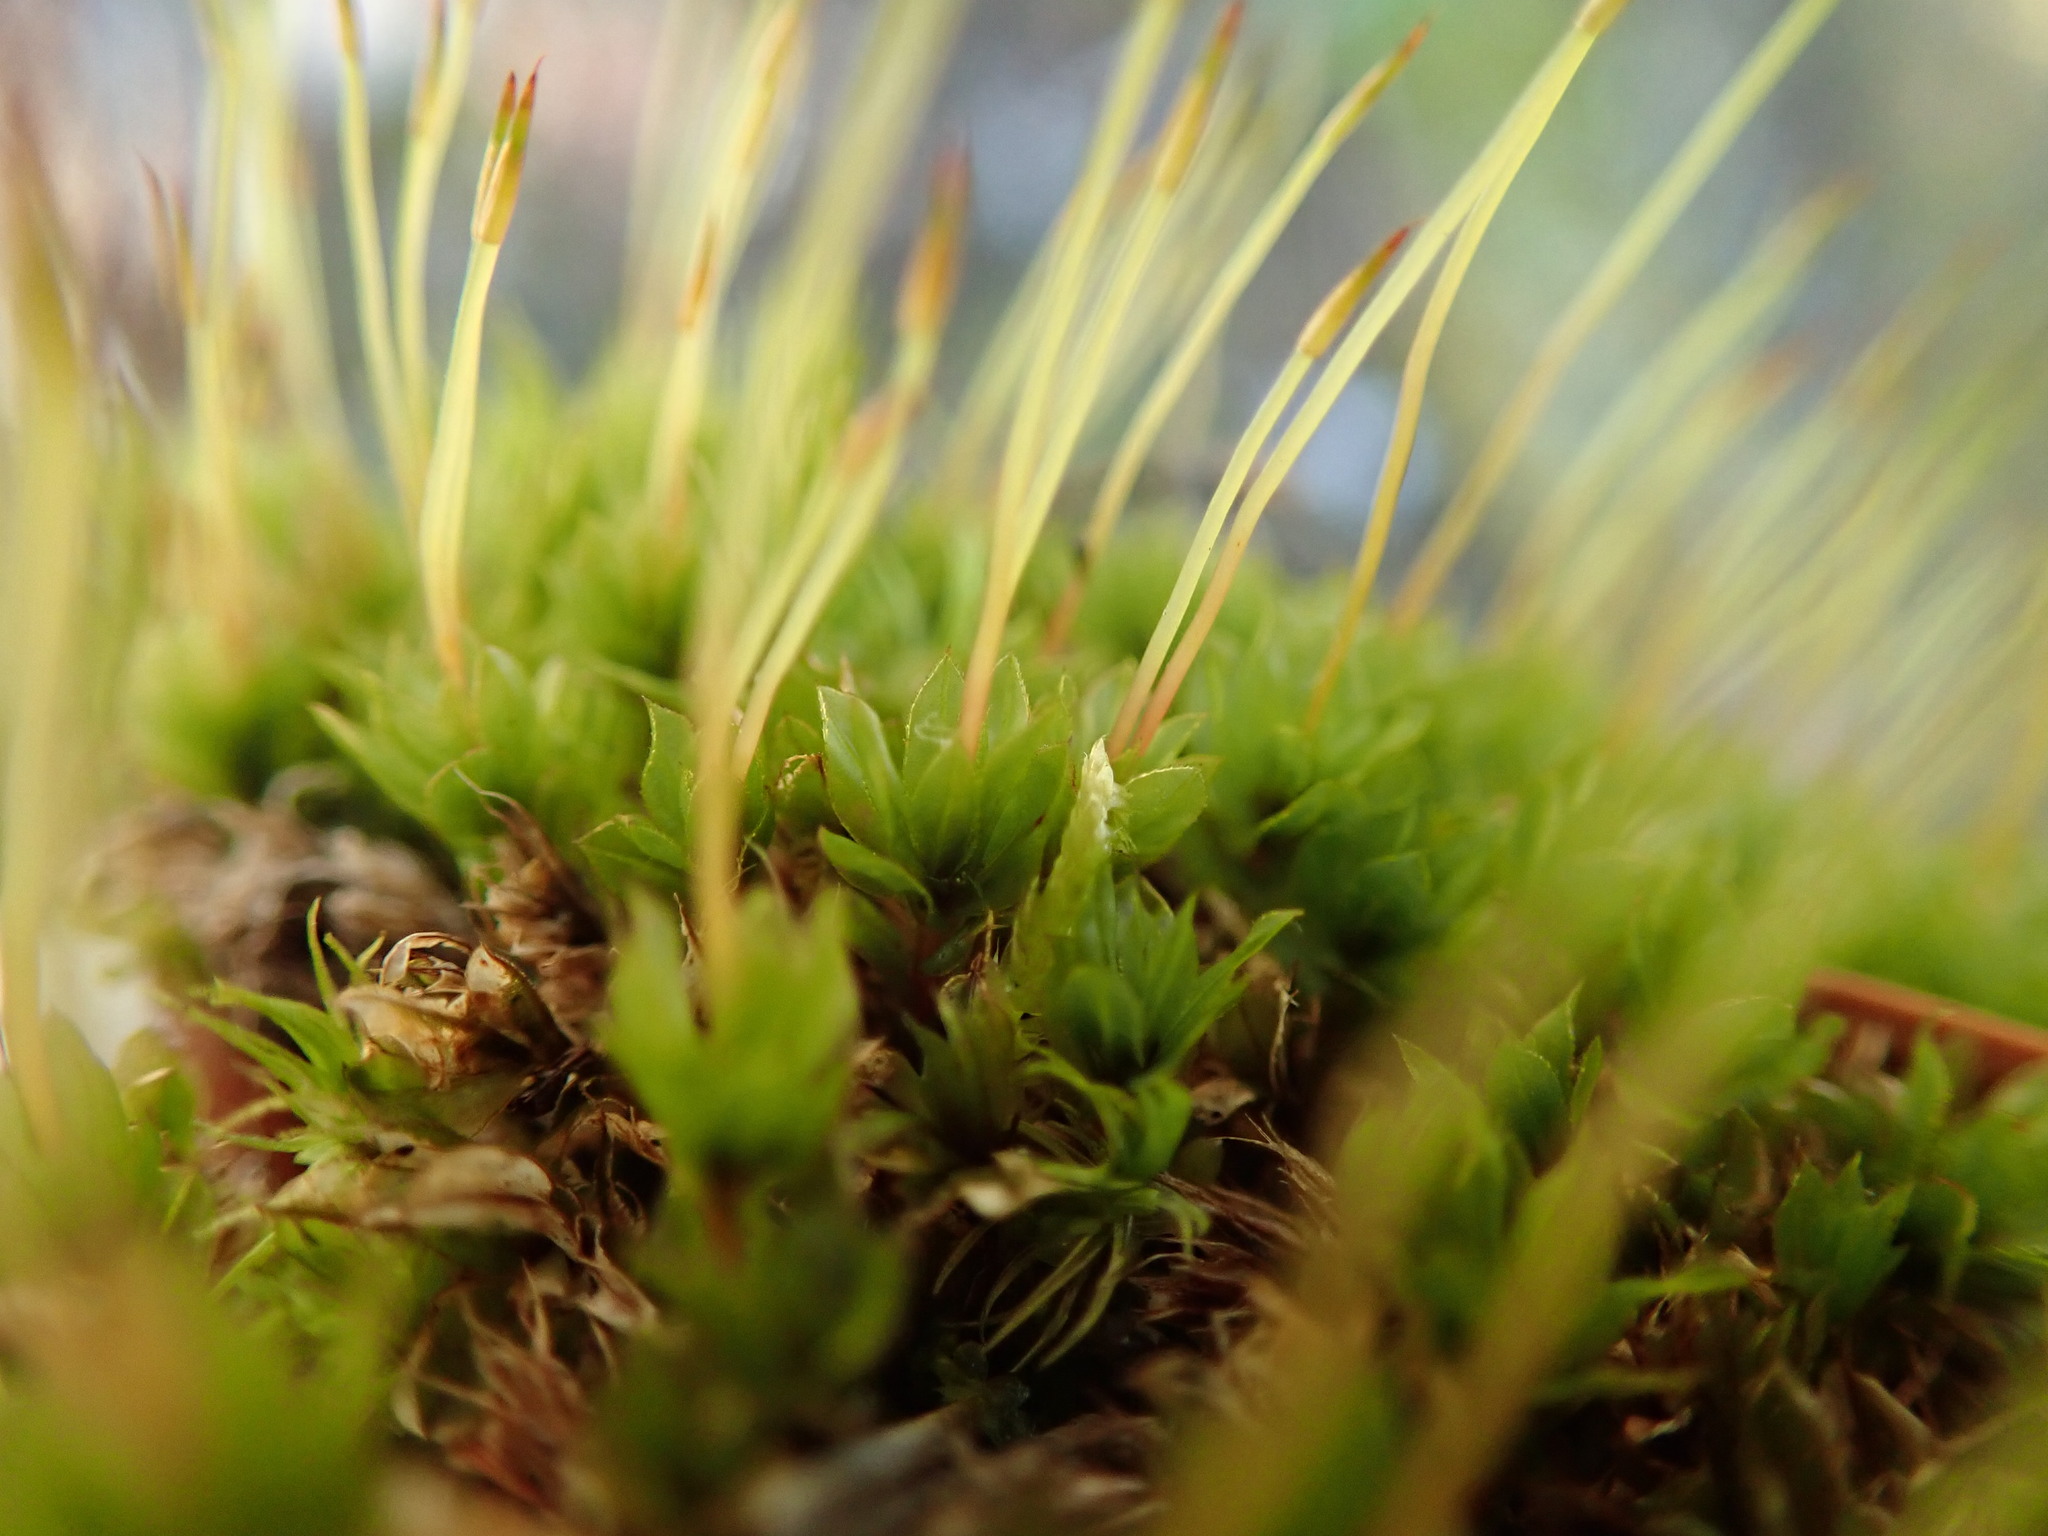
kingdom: Plantae
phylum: Bryophyta
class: Bryopsida
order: Bryales
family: Mniaceae
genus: Mnium
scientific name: Mnium spinulosum
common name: Red-mouthed leafy moss
